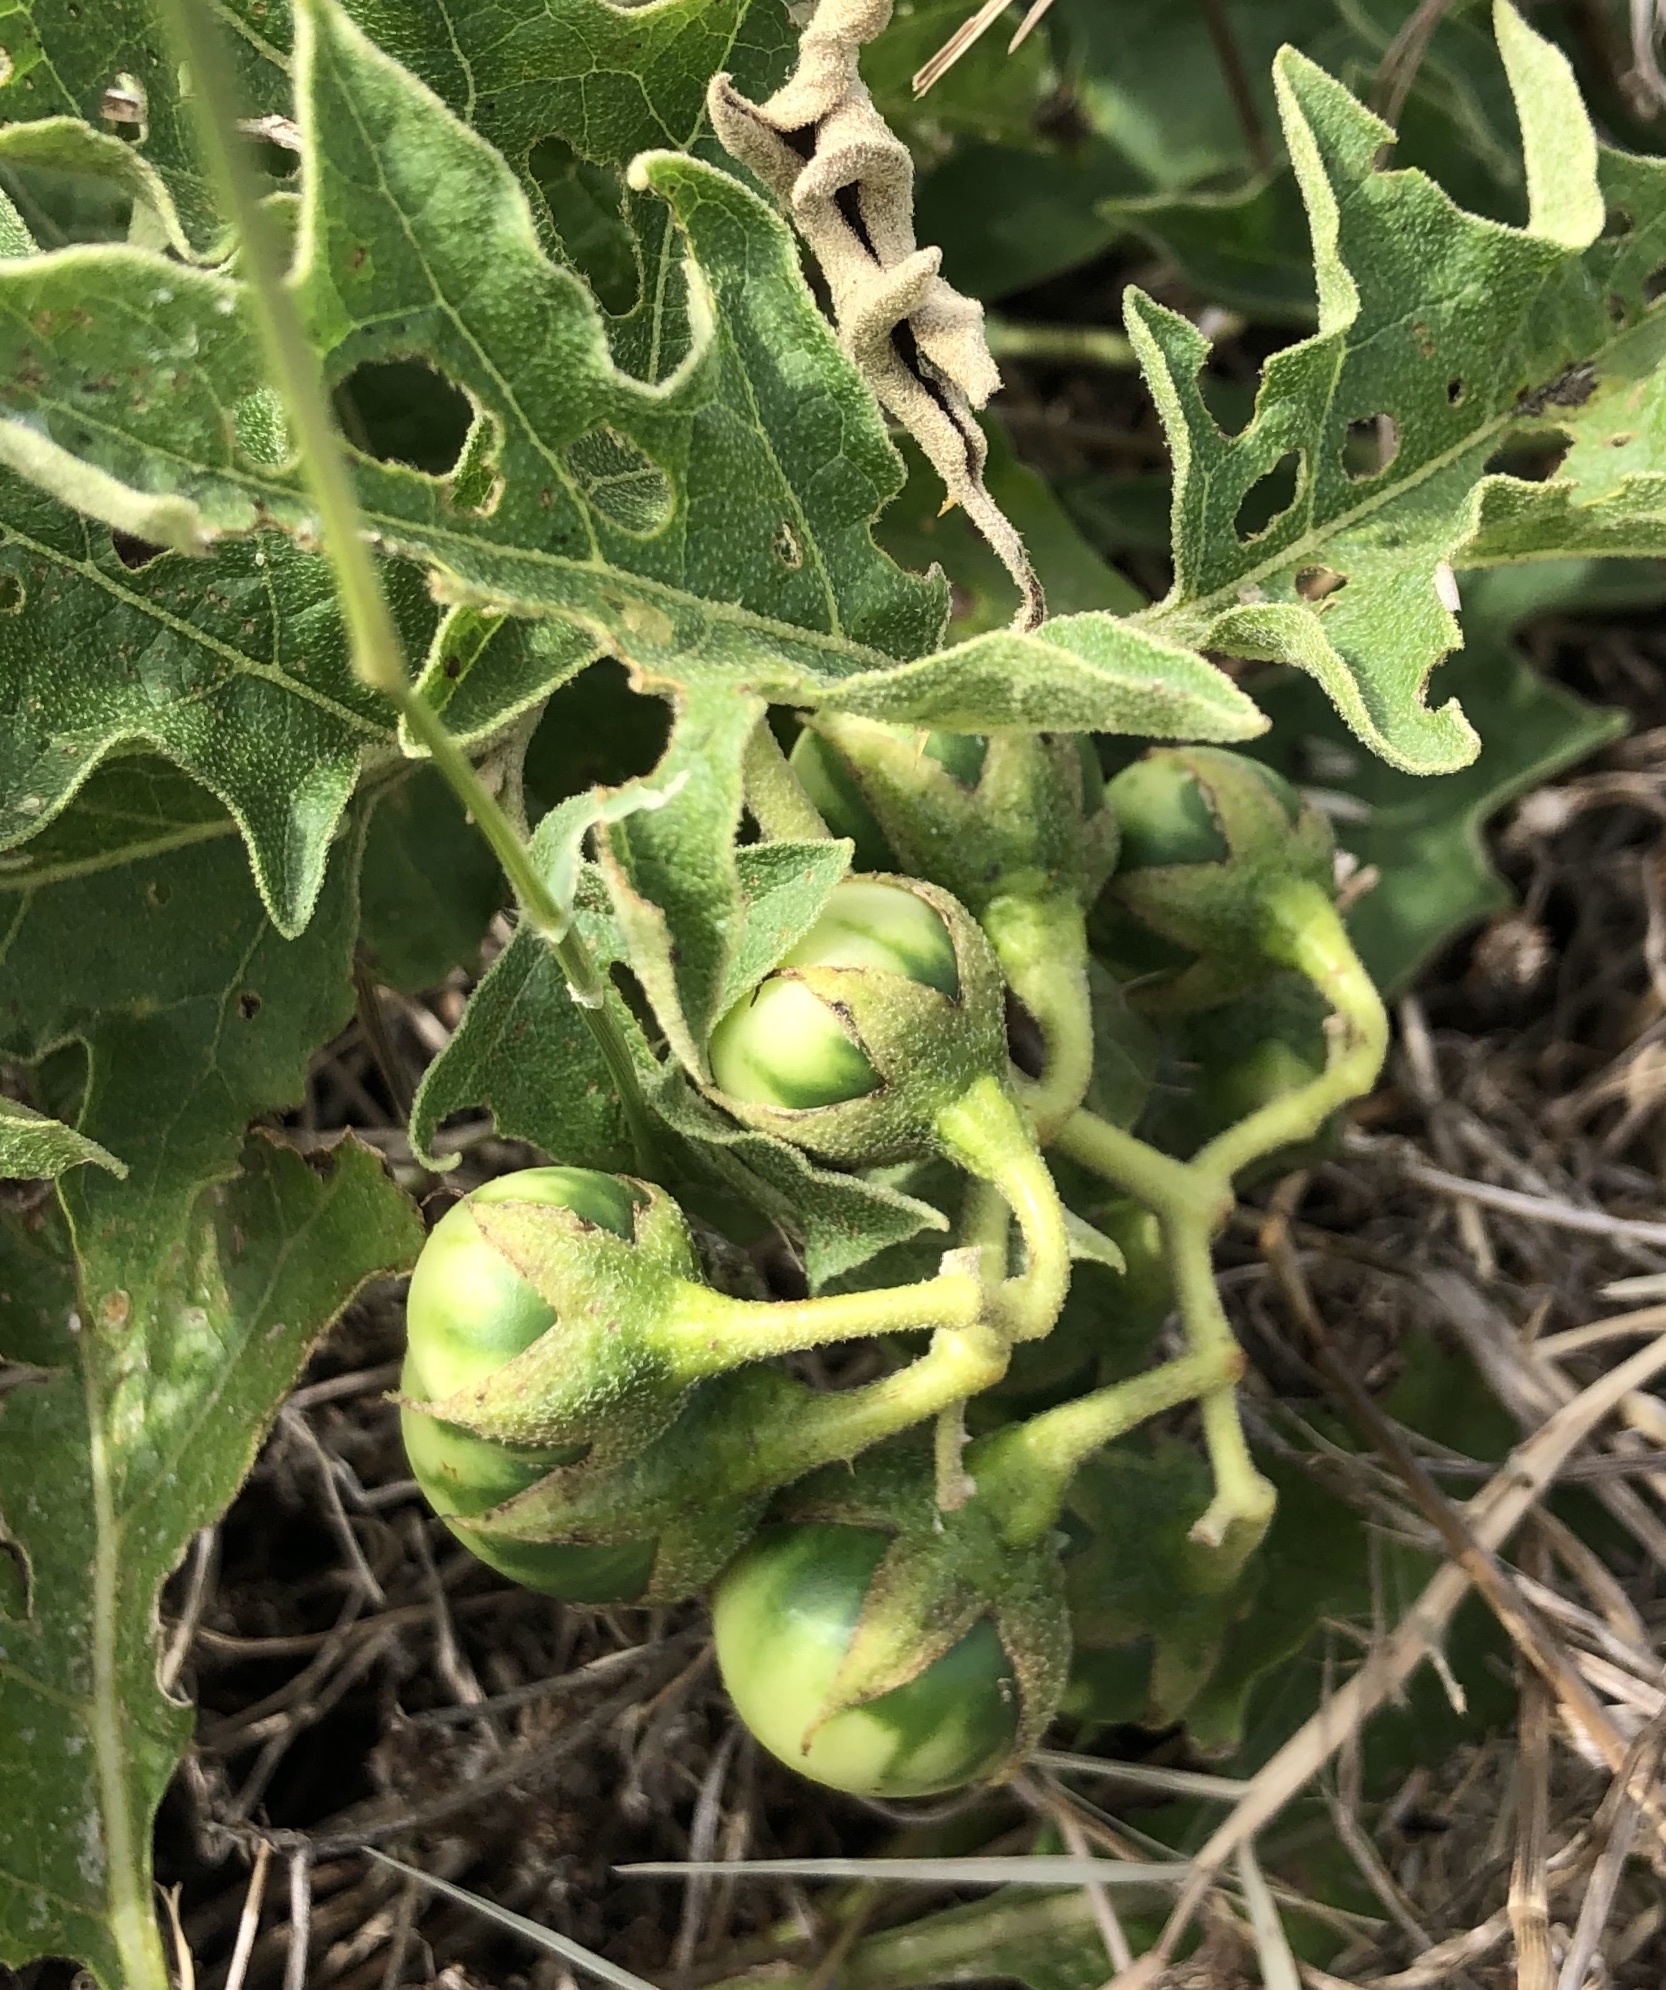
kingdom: Plantae
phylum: Tracheophyta
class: Magnoliopsida
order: Solanales
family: Solanaceae
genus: Solanum
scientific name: Solanum dimidiatum
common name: Carolina horse-nettle
